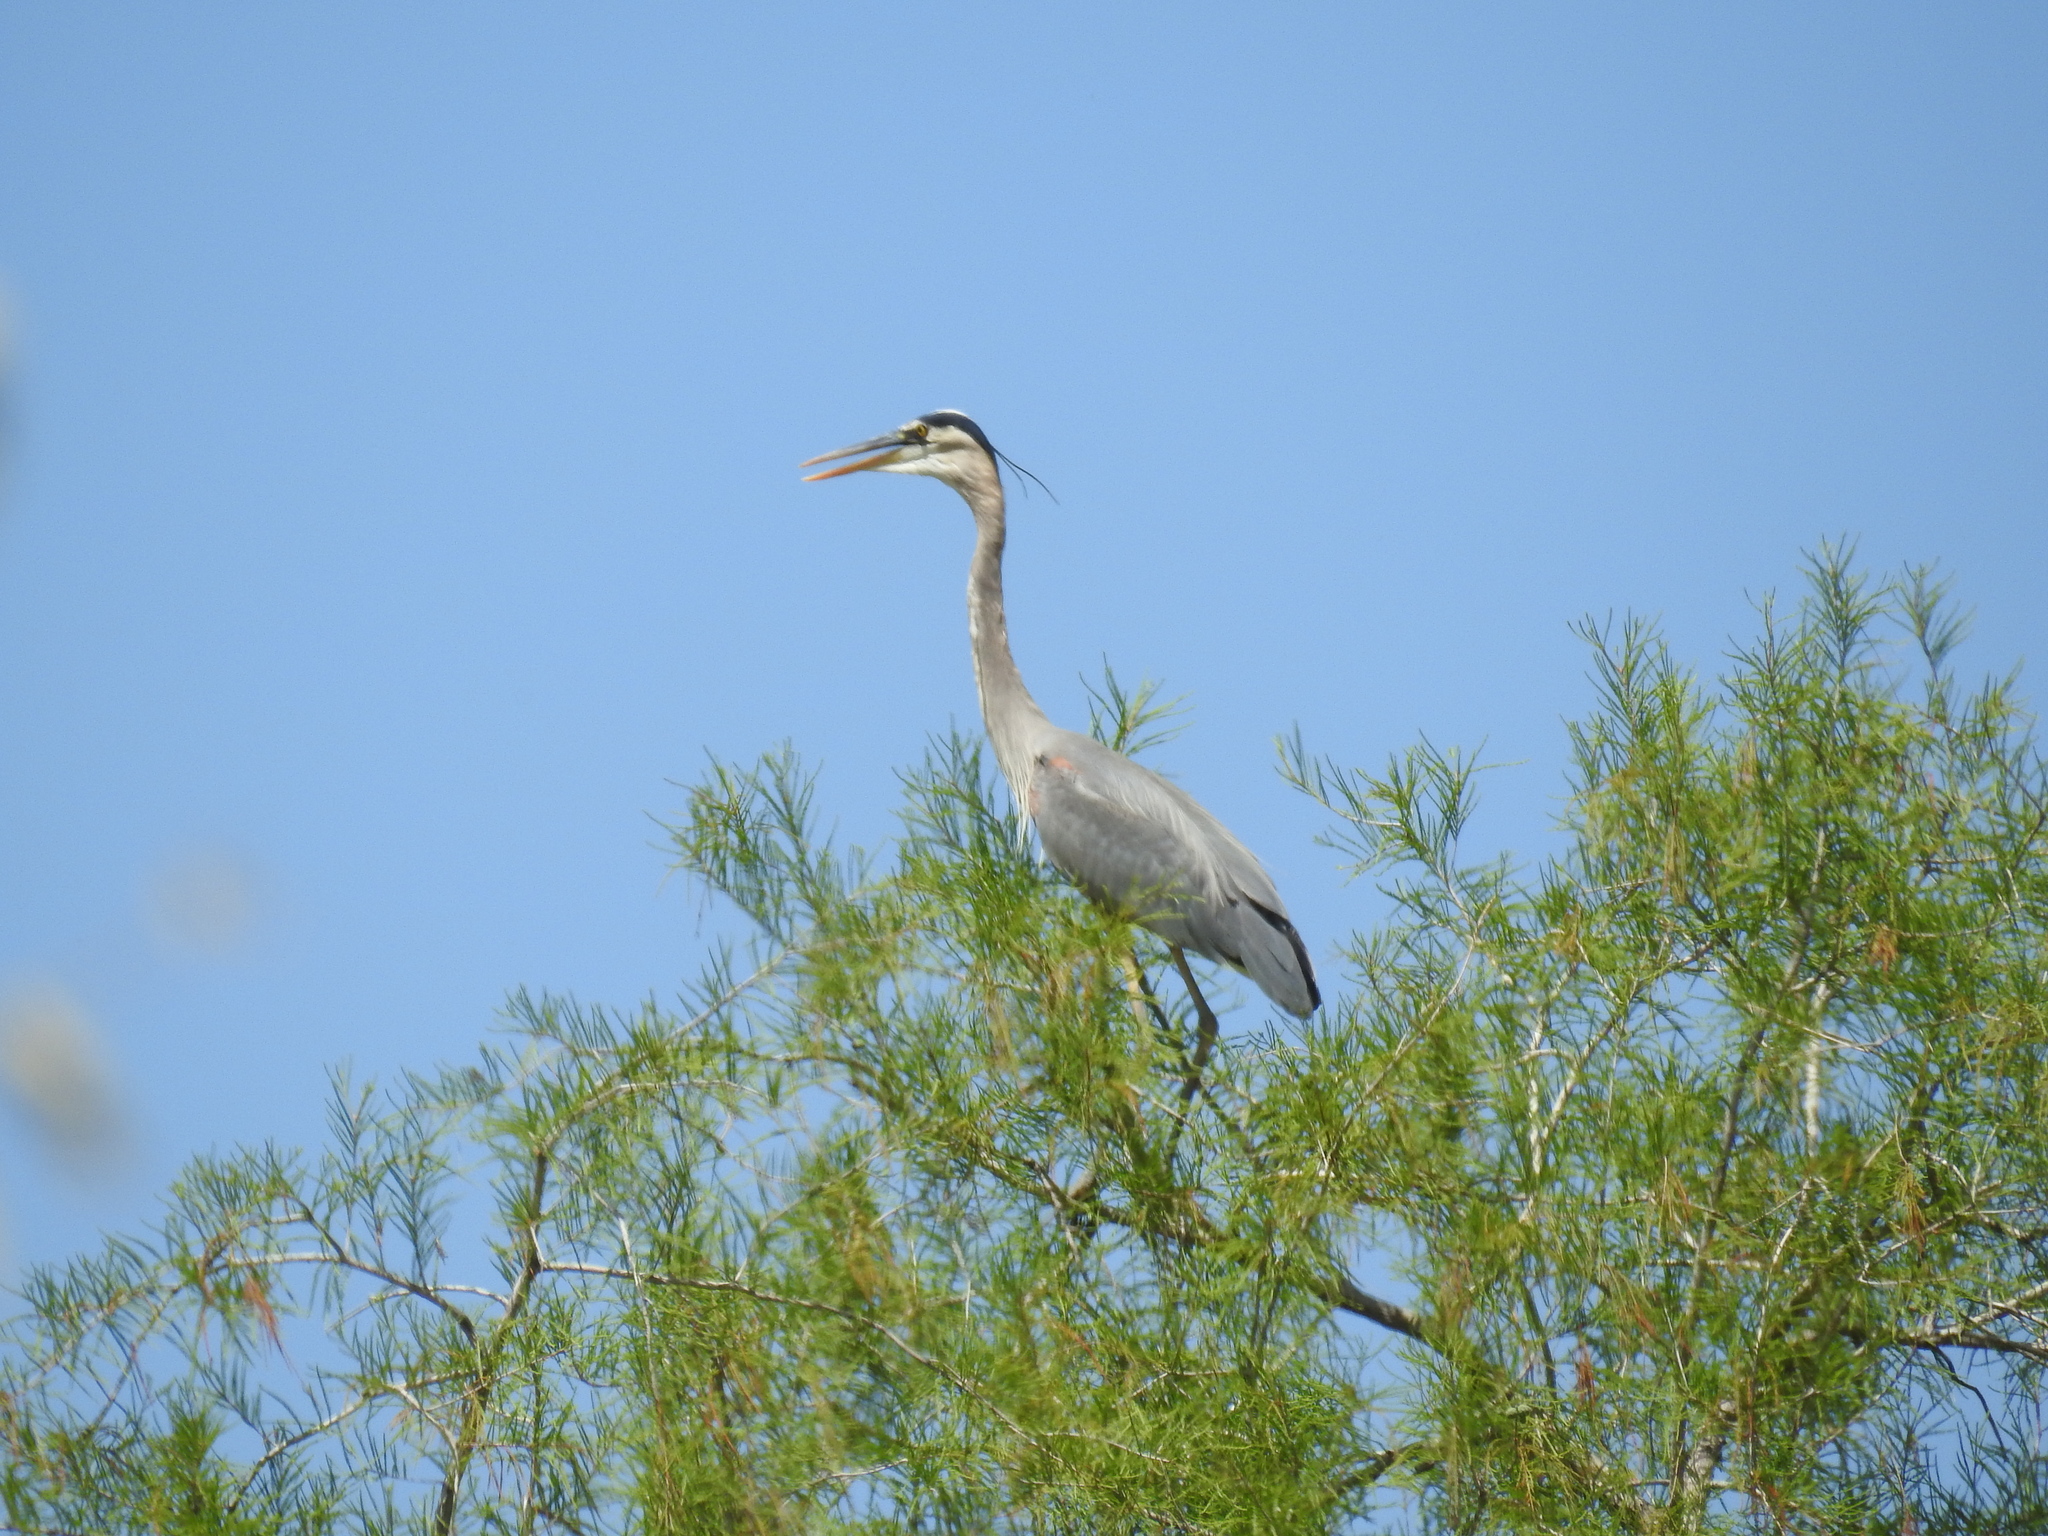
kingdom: Animalia
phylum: Chordata
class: Aves
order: Pelecaniformes
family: Ardeidae
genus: Ardea
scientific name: Ardea herodias
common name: Great blue heron
